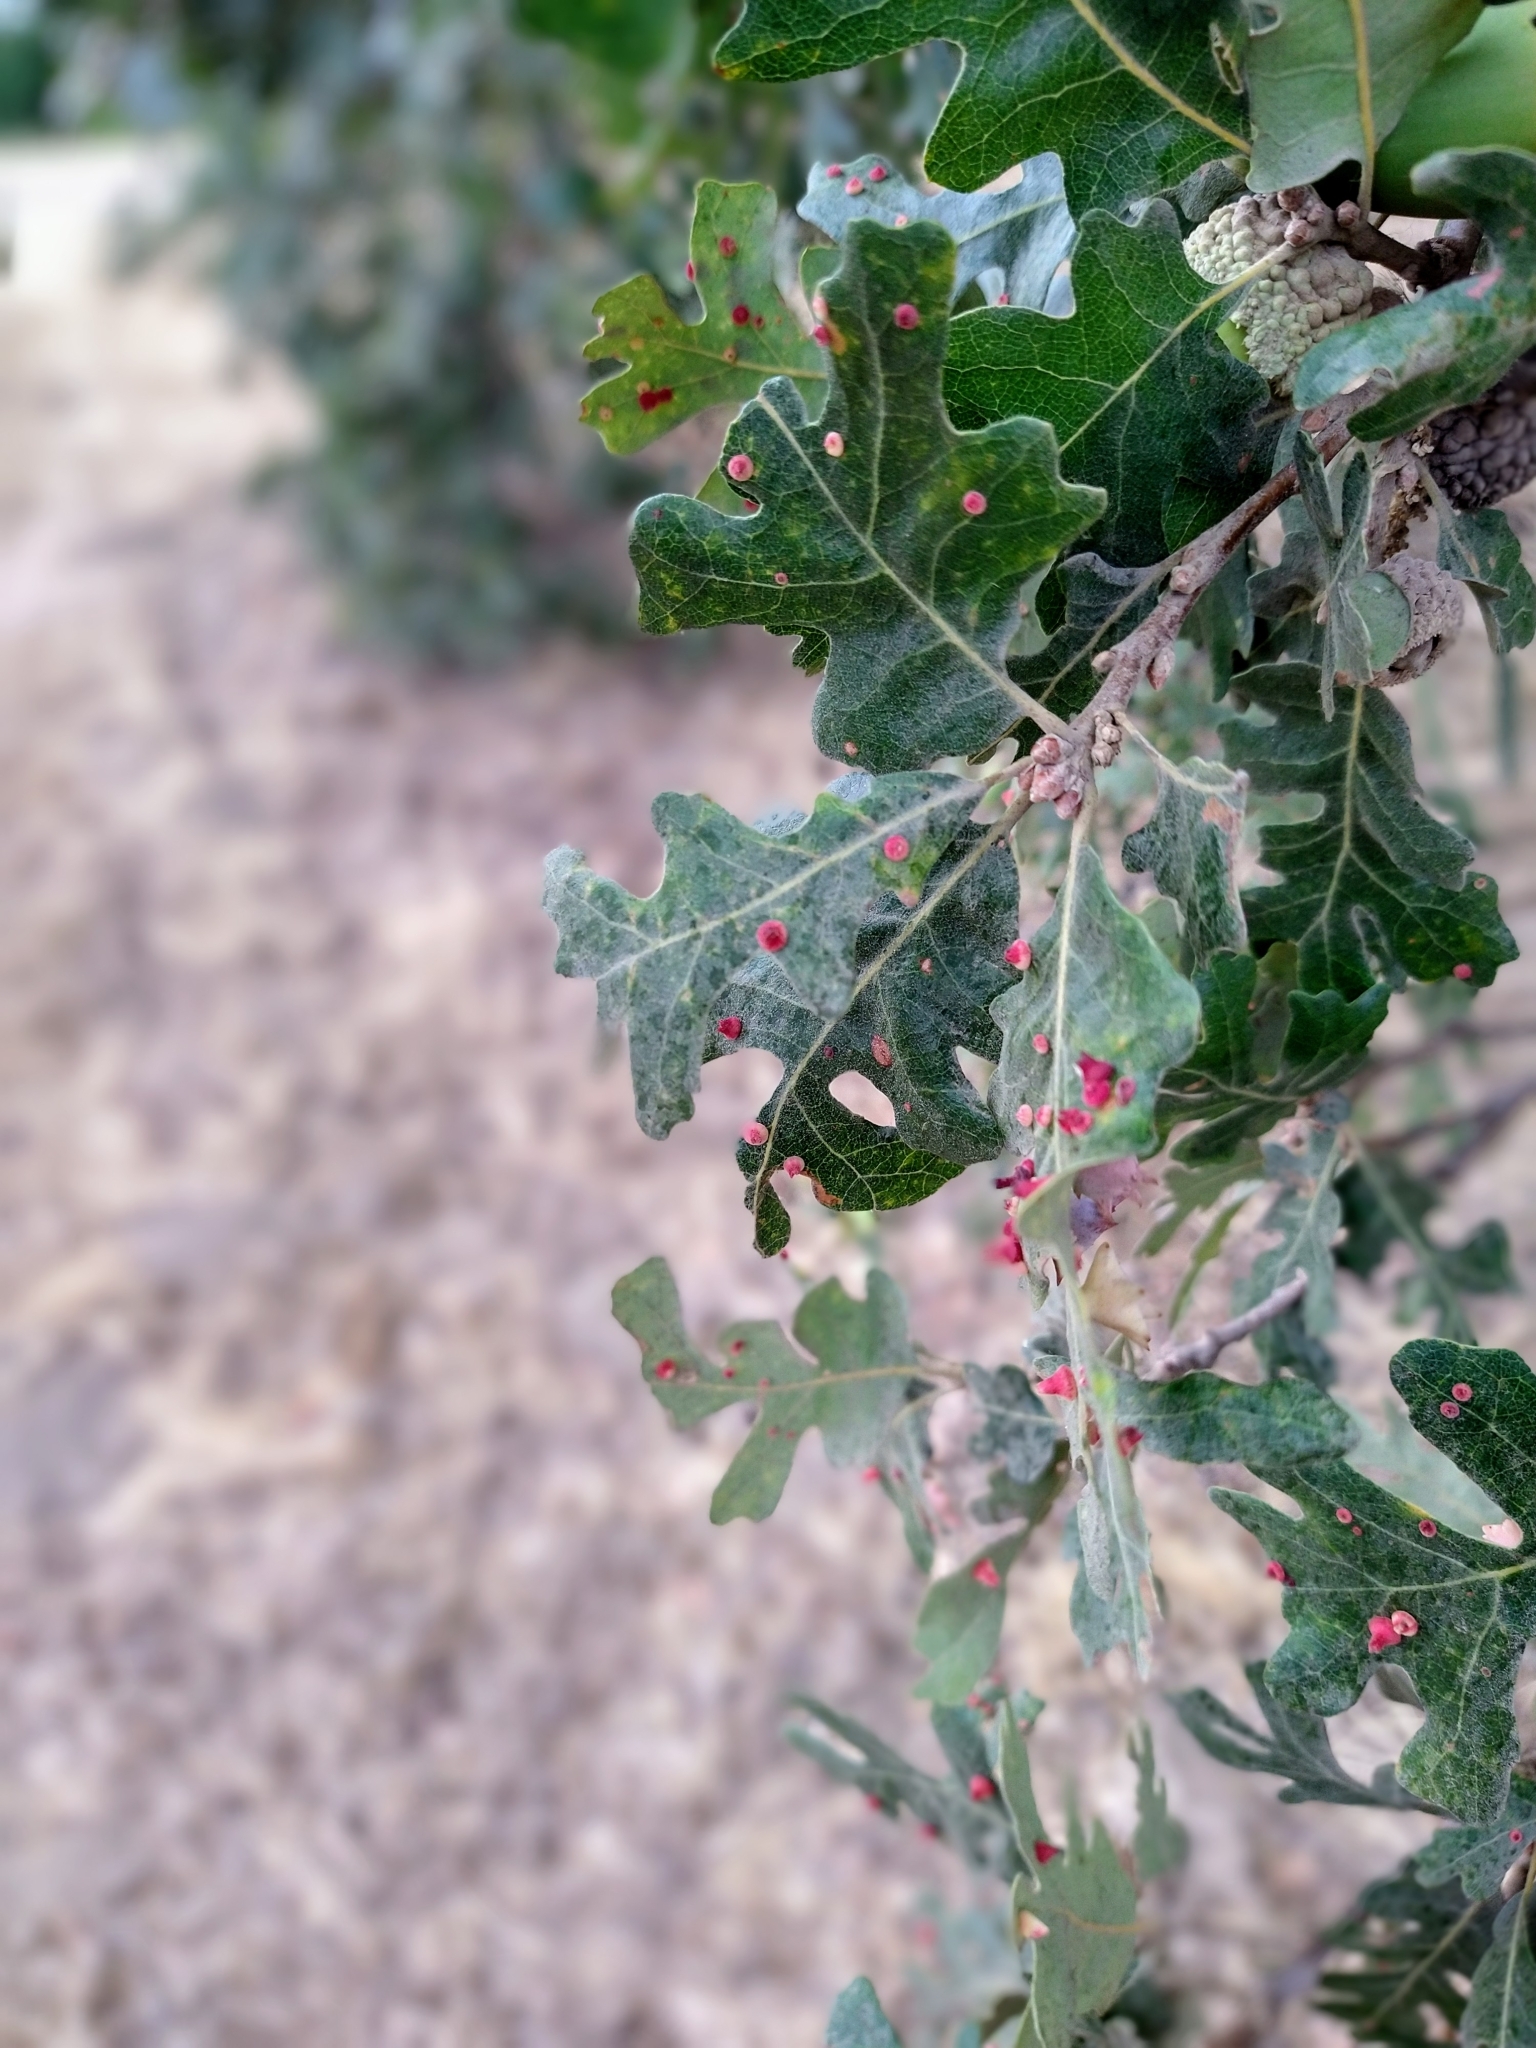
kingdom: Animalia
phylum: Arthropoda
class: Insecta
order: Hymenoptera
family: Cynipidae
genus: Andricus
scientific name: Andricus
